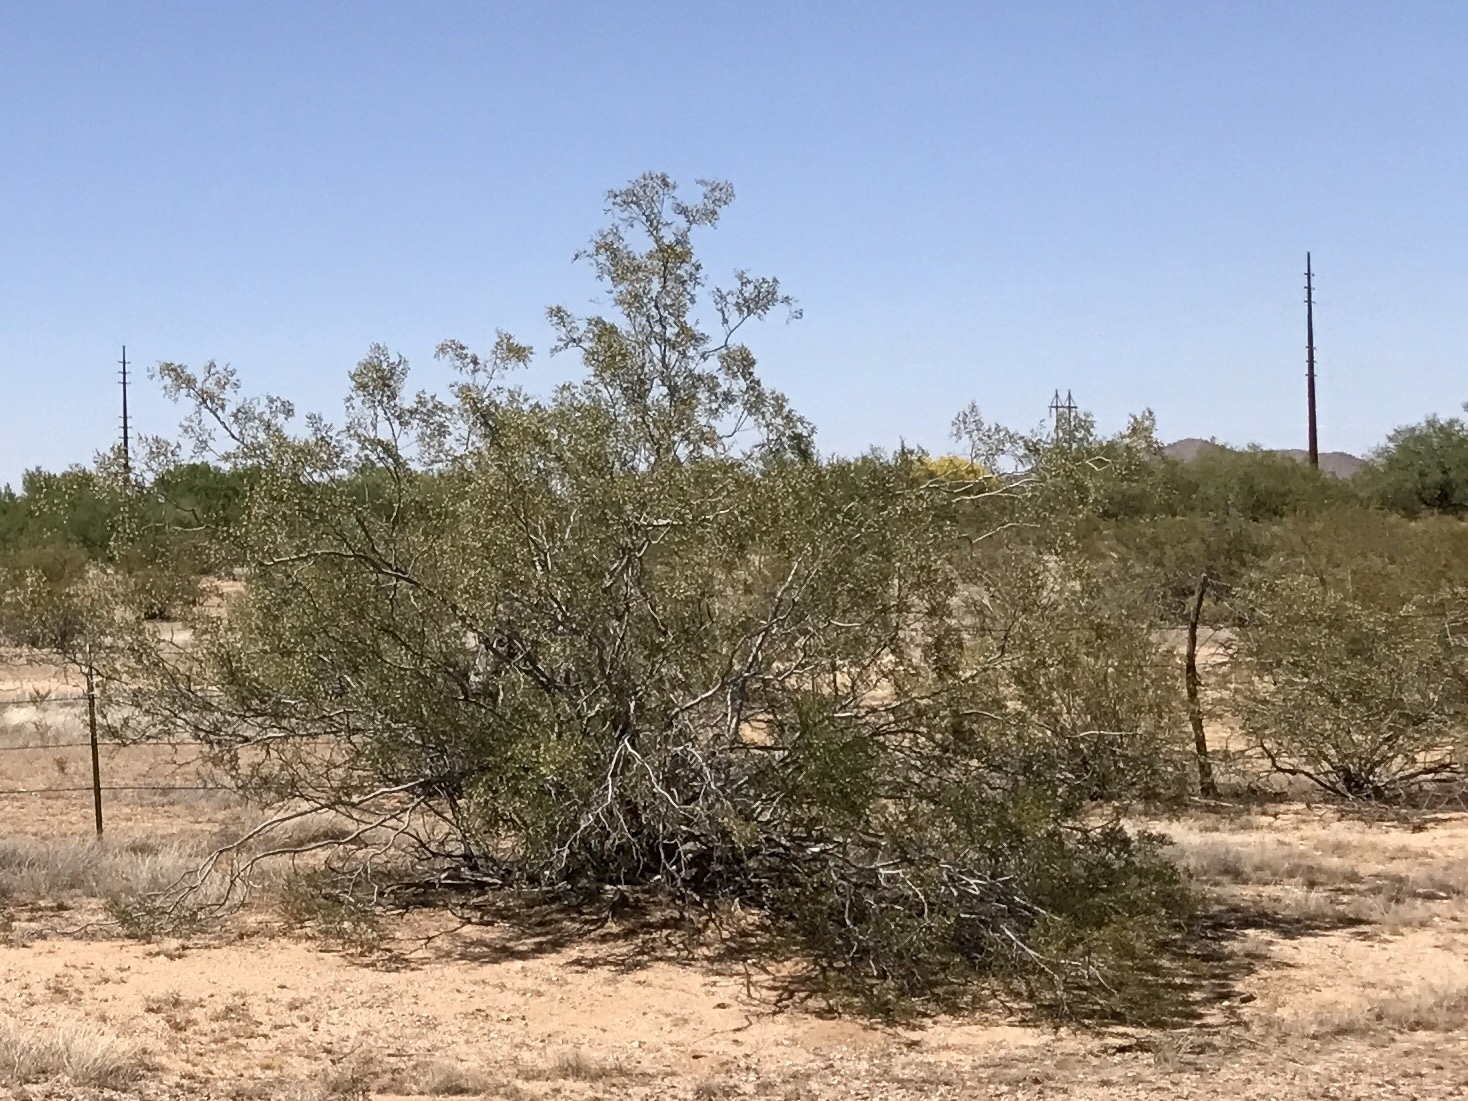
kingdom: Plantae
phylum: Tracheophyta
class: Magnoliopsida
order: Zygophyllales
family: Zygophyllaceae
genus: Larrea
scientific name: Larrea tridentata
